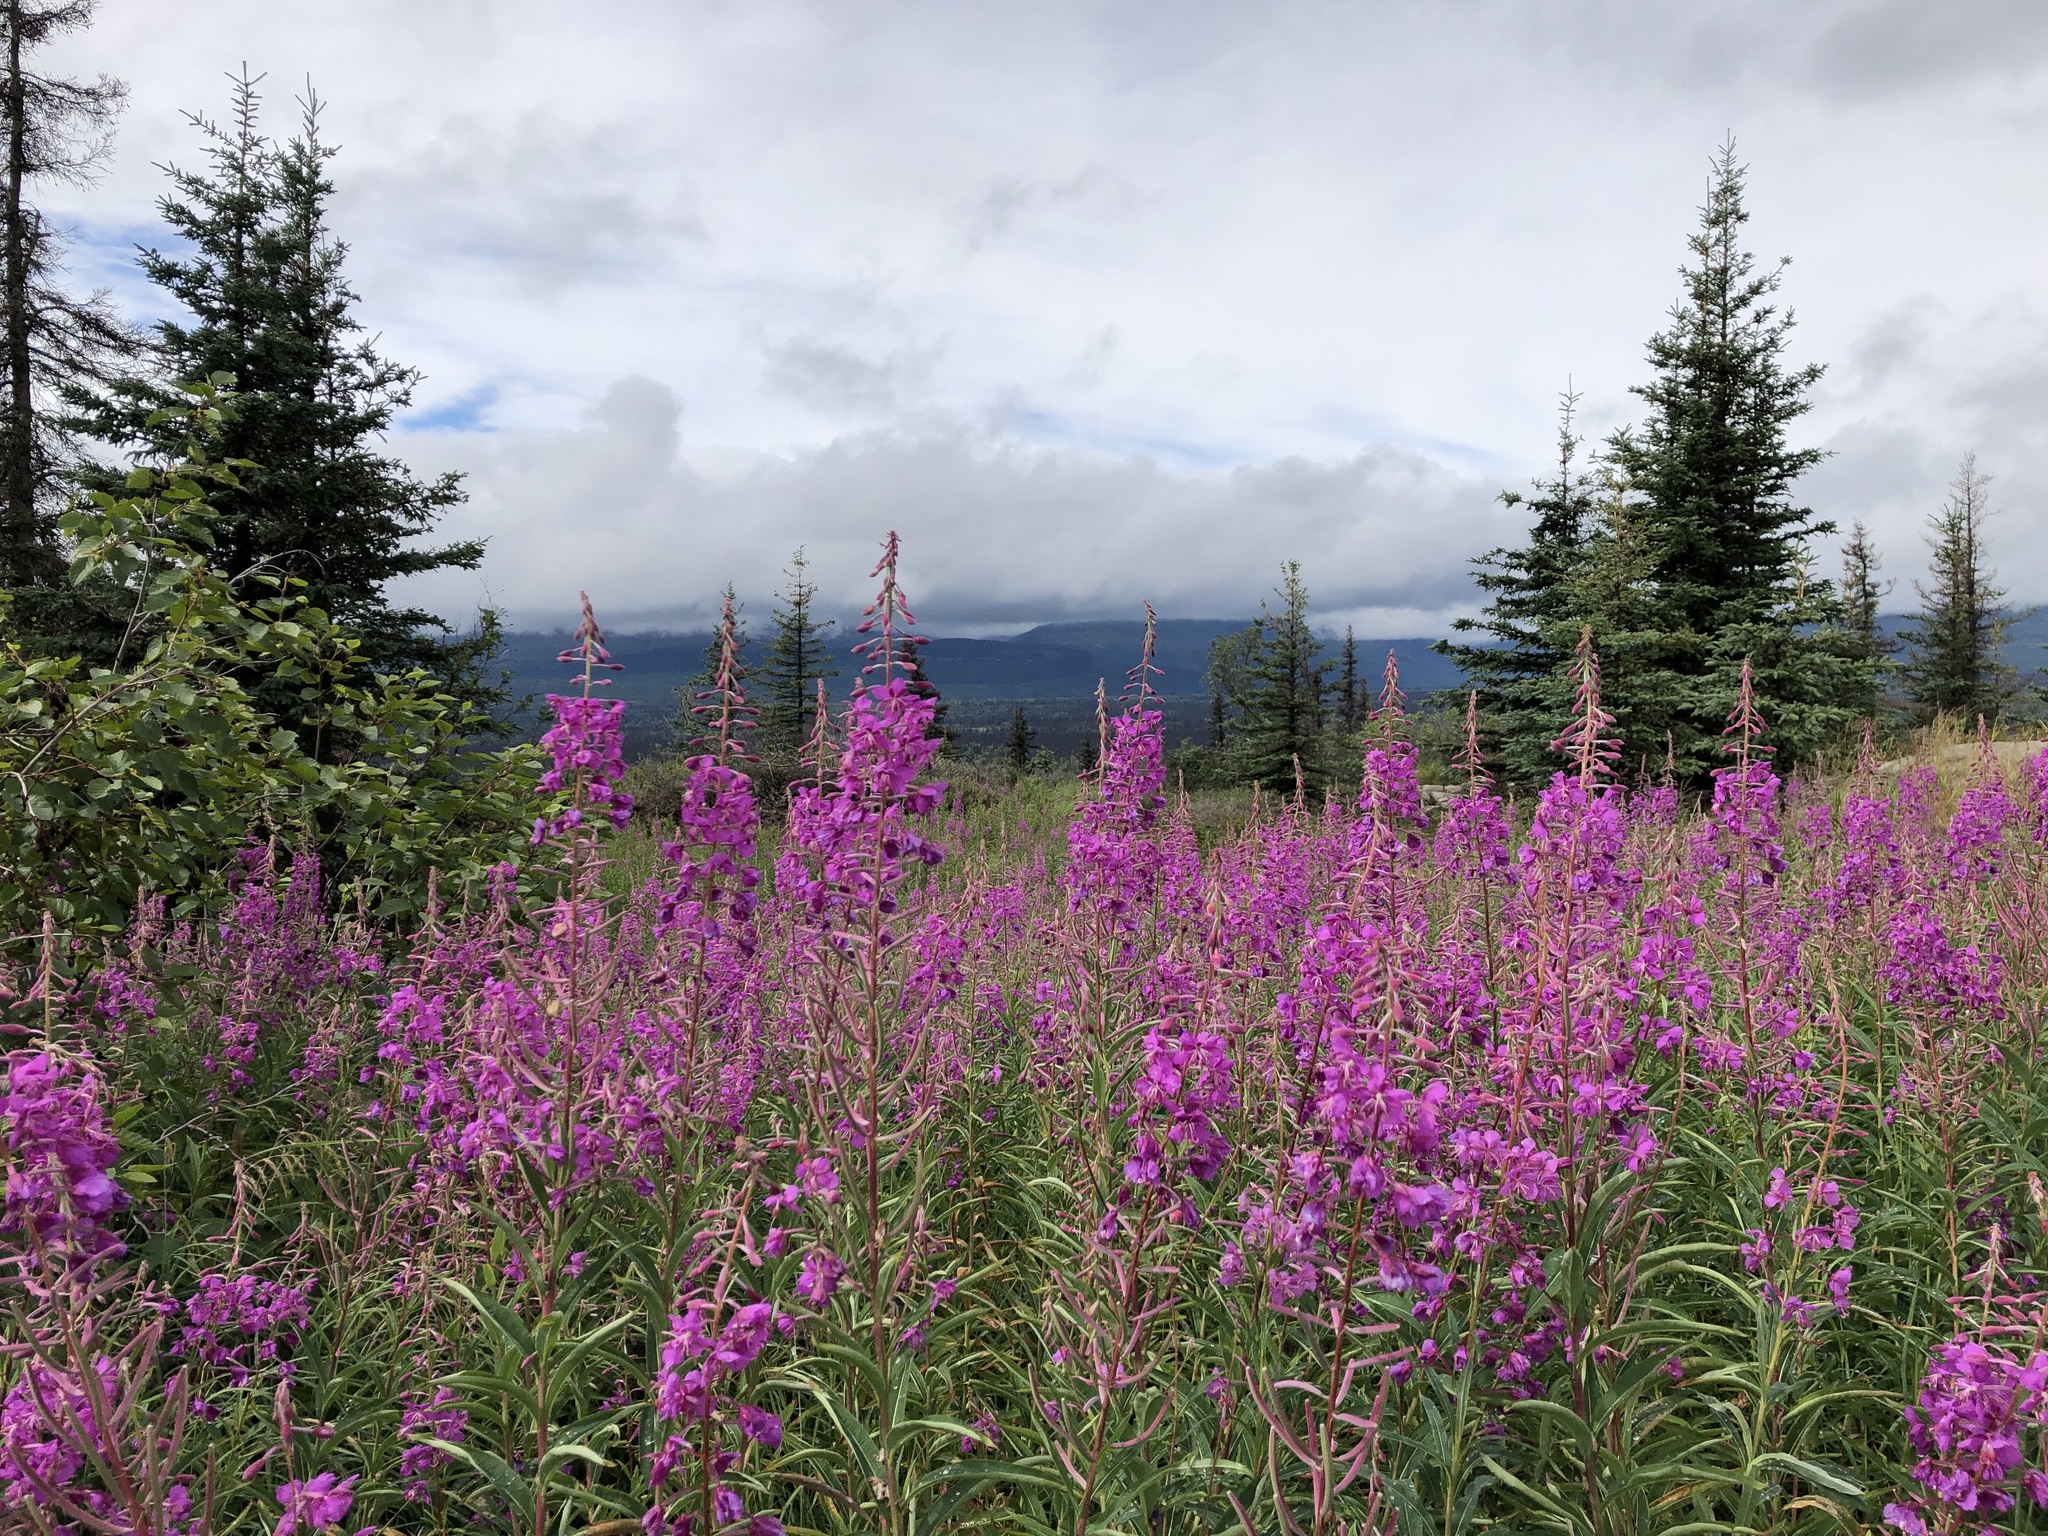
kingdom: Plantae
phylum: Tracheophyta
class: Magnoliopsida
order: Myrtales
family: Onagraceae
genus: Chamaenerion
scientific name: Chamaenerion angustifolium
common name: Fireweed
